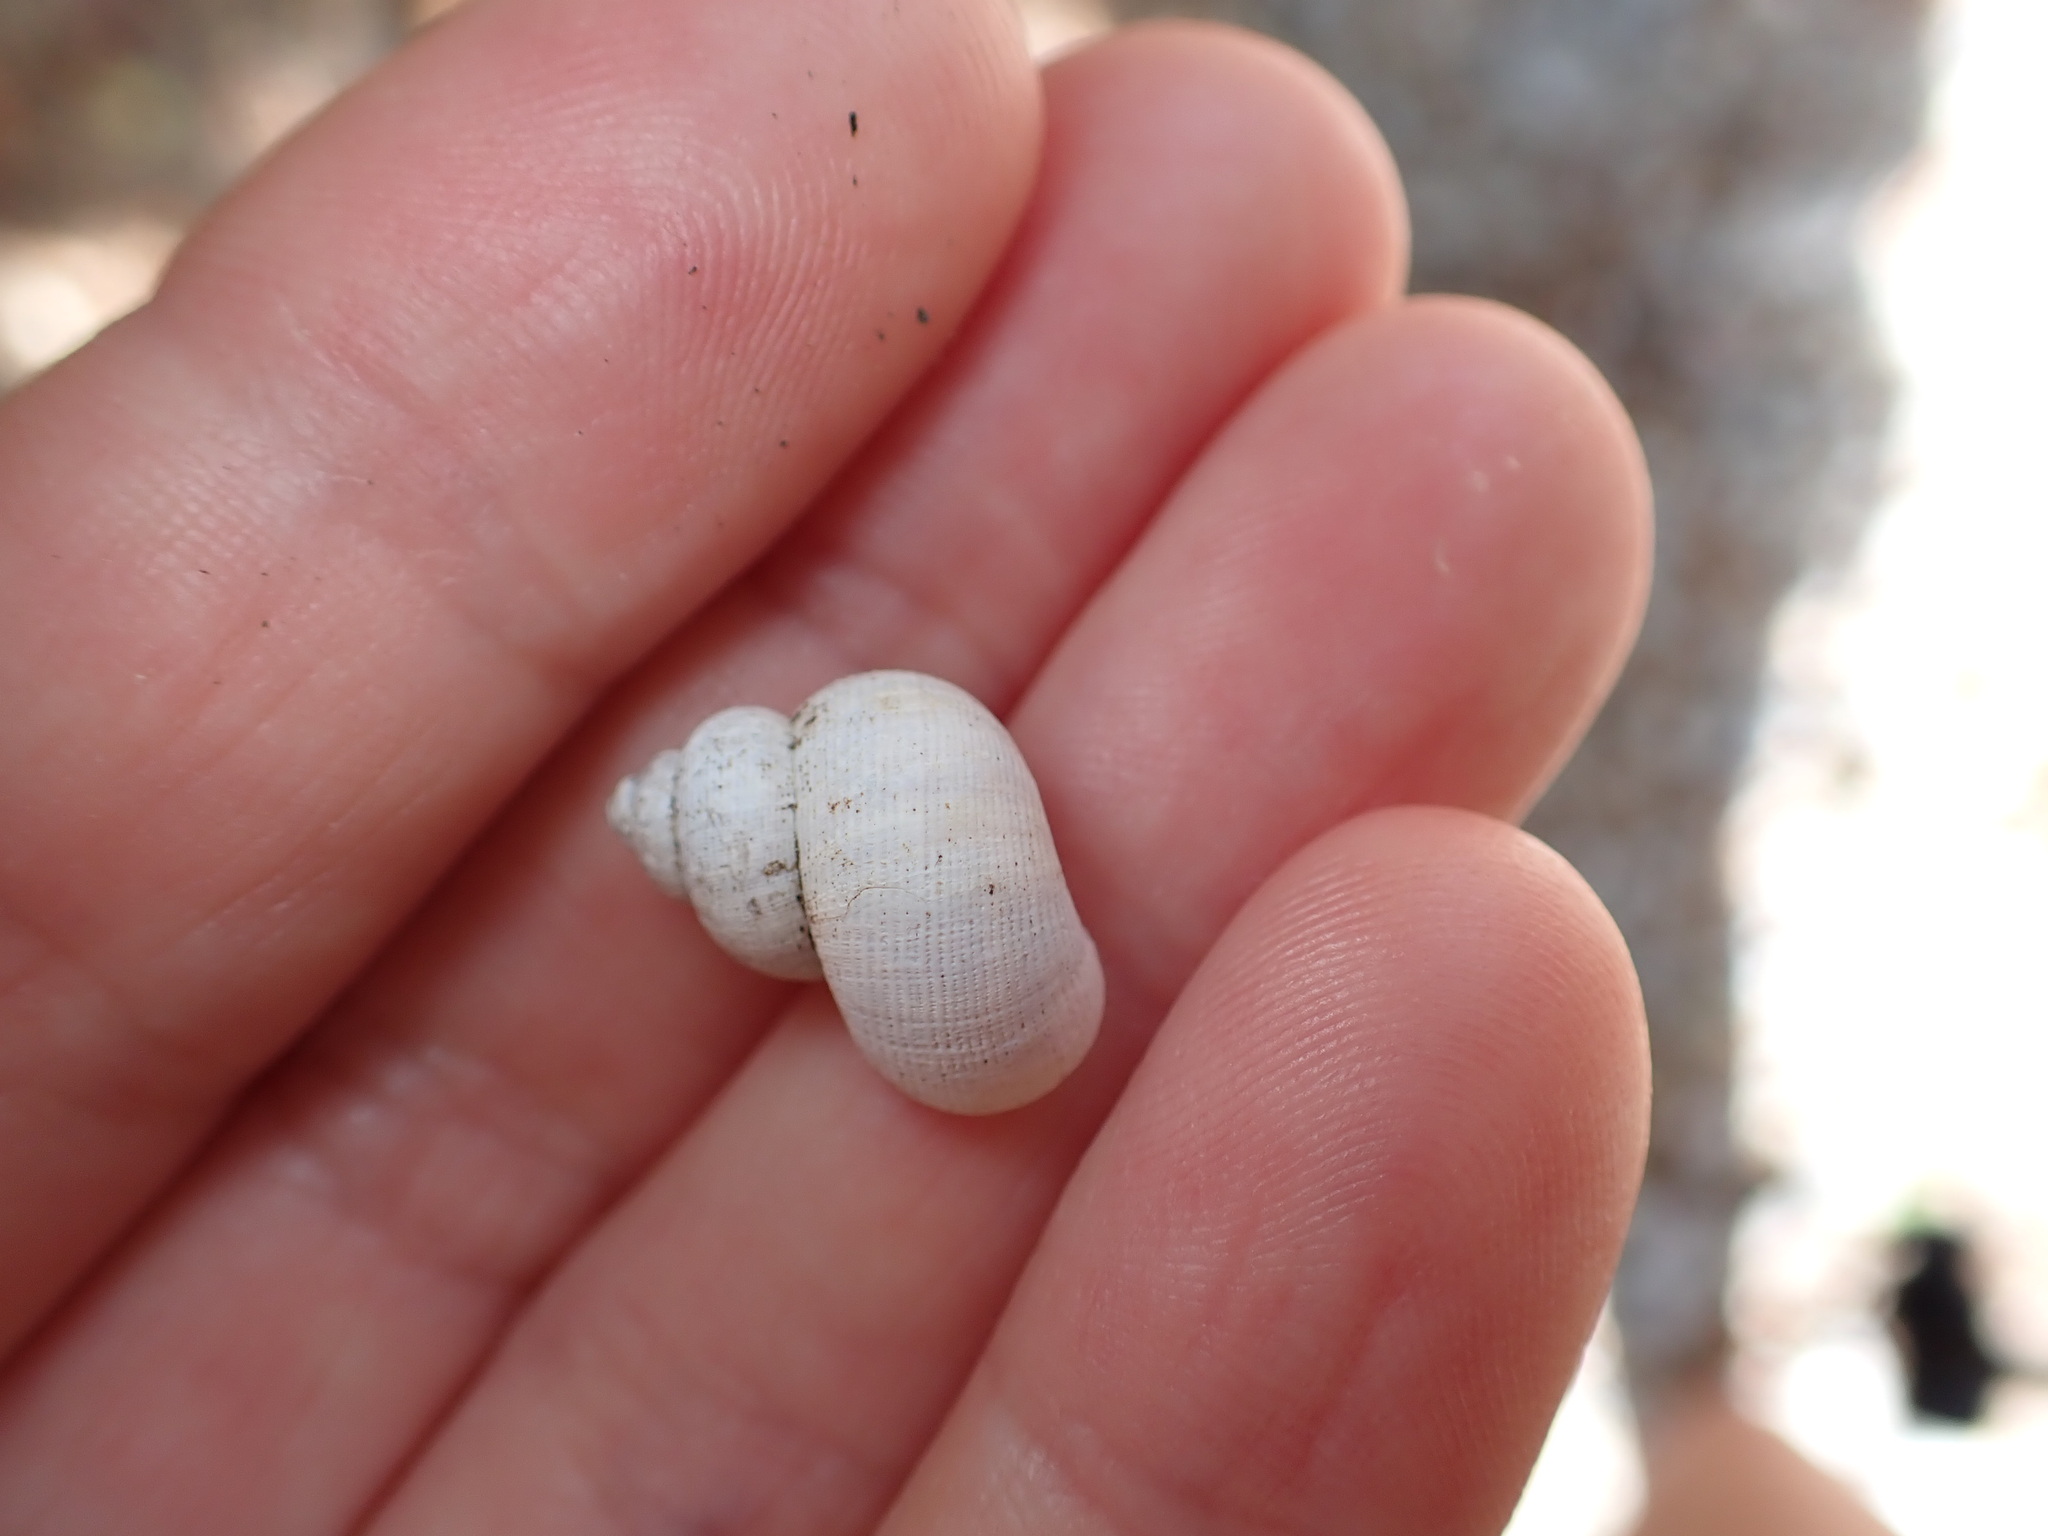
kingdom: Animalia
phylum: Mollusca
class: Gastropoda
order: Littorinimorpha
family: Pomatiidae
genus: Pomatias
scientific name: Pomatias elegans
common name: Red-mouthed snail
